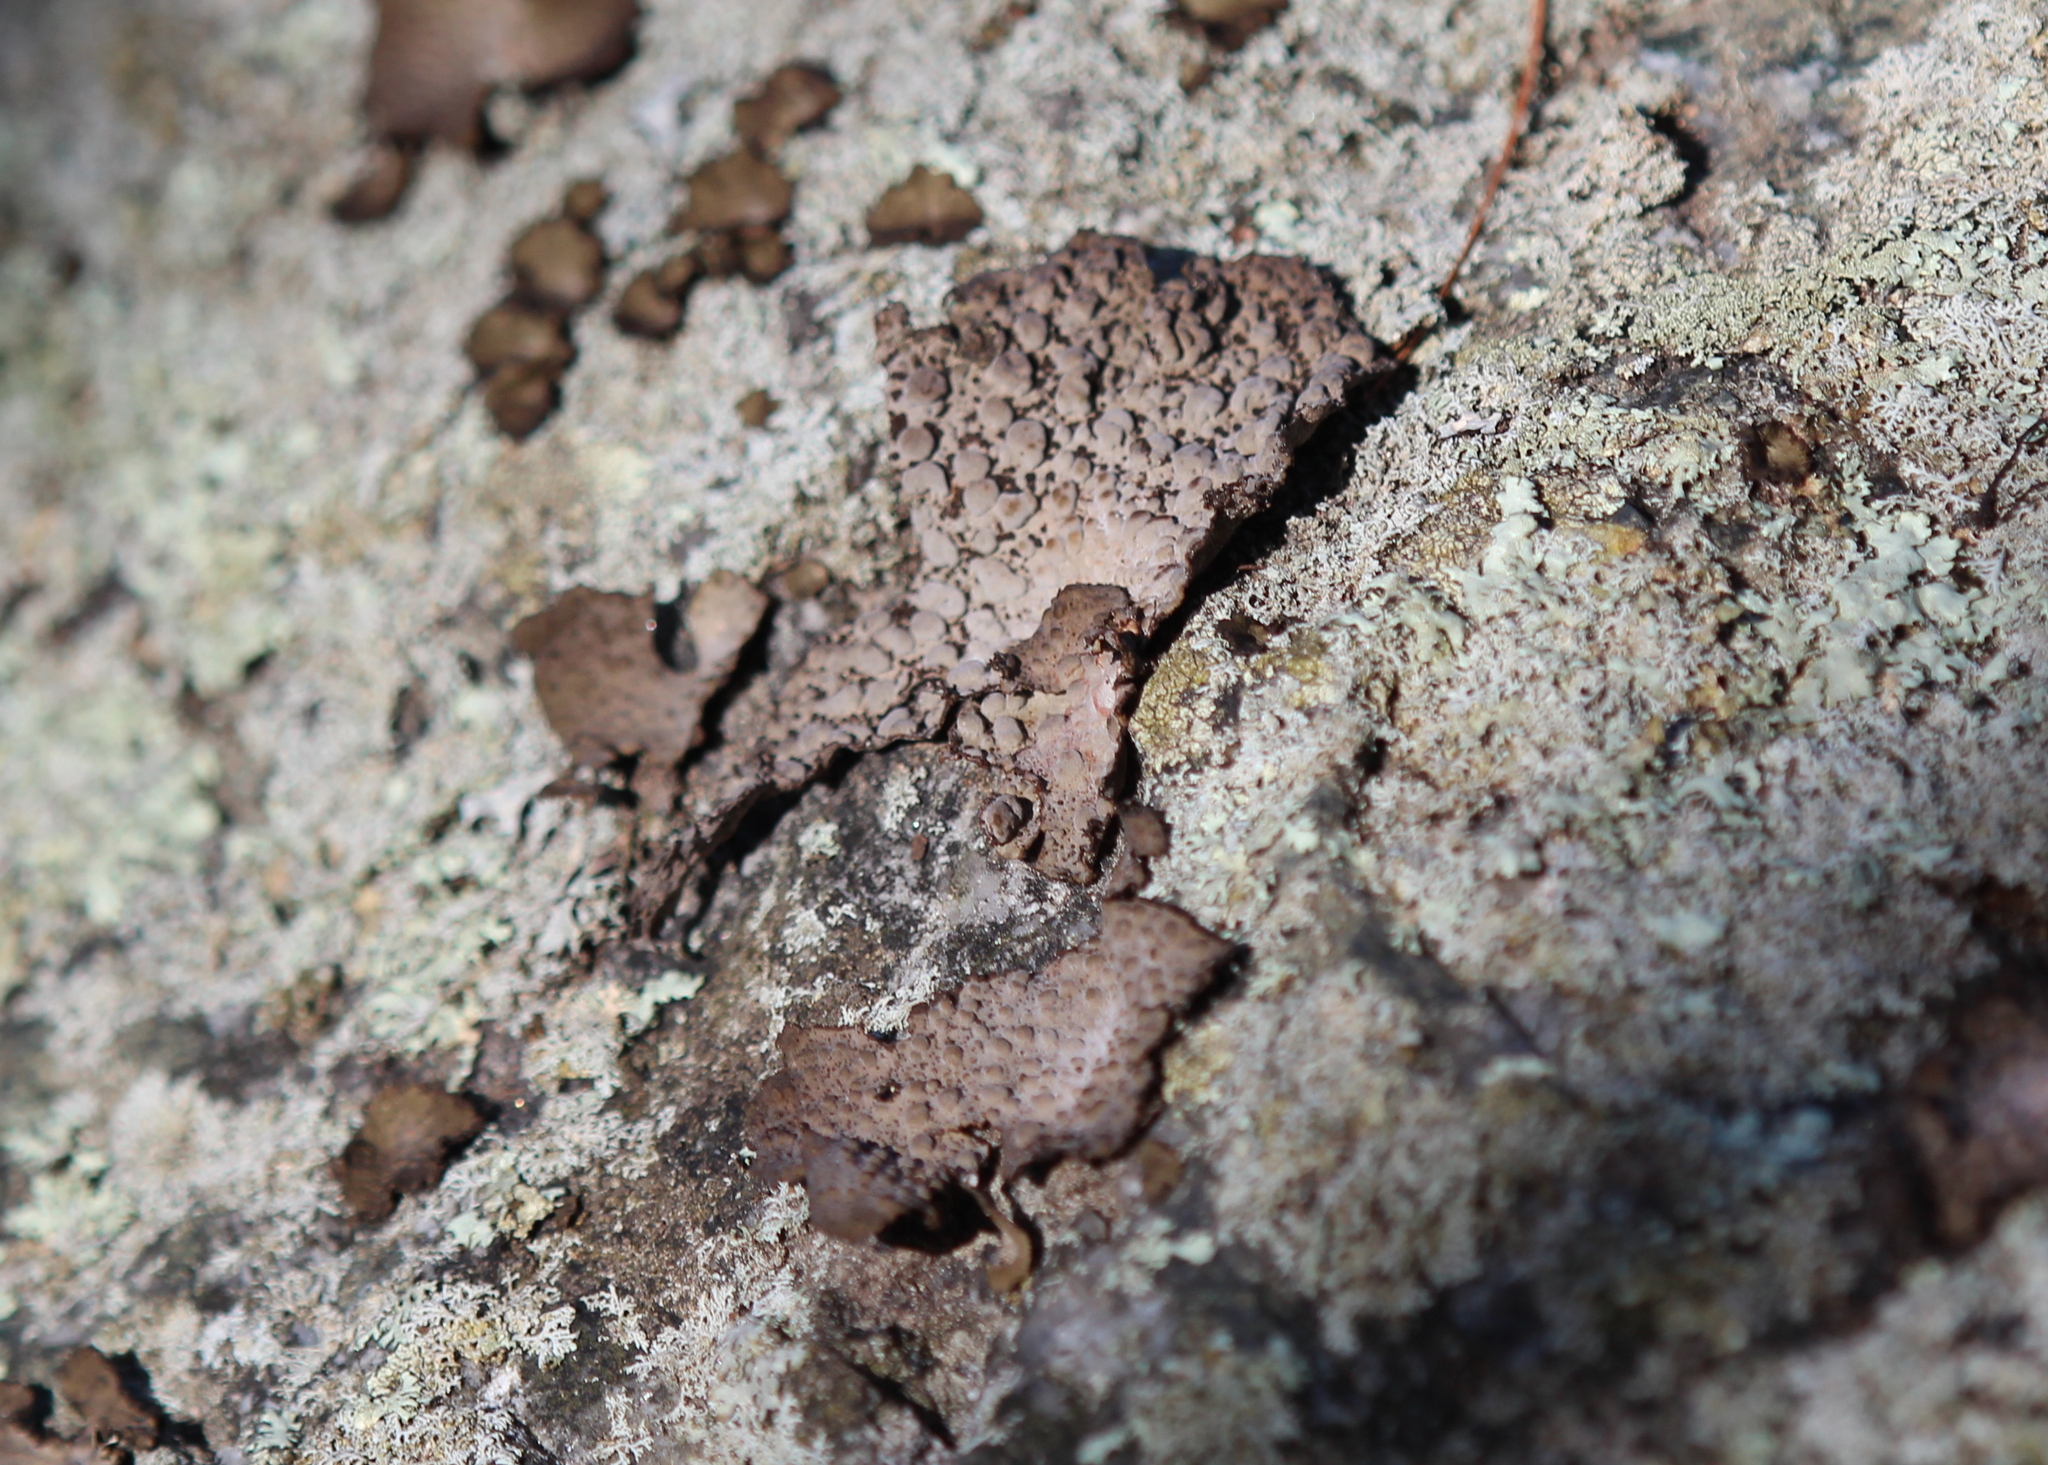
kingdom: Fungi
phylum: Ascomycota
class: Lecanoromycetes
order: Umbilicariales
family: Umbilicariaceae
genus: Lasallia
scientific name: Lasallia papulosa
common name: Common toadskin lichen
